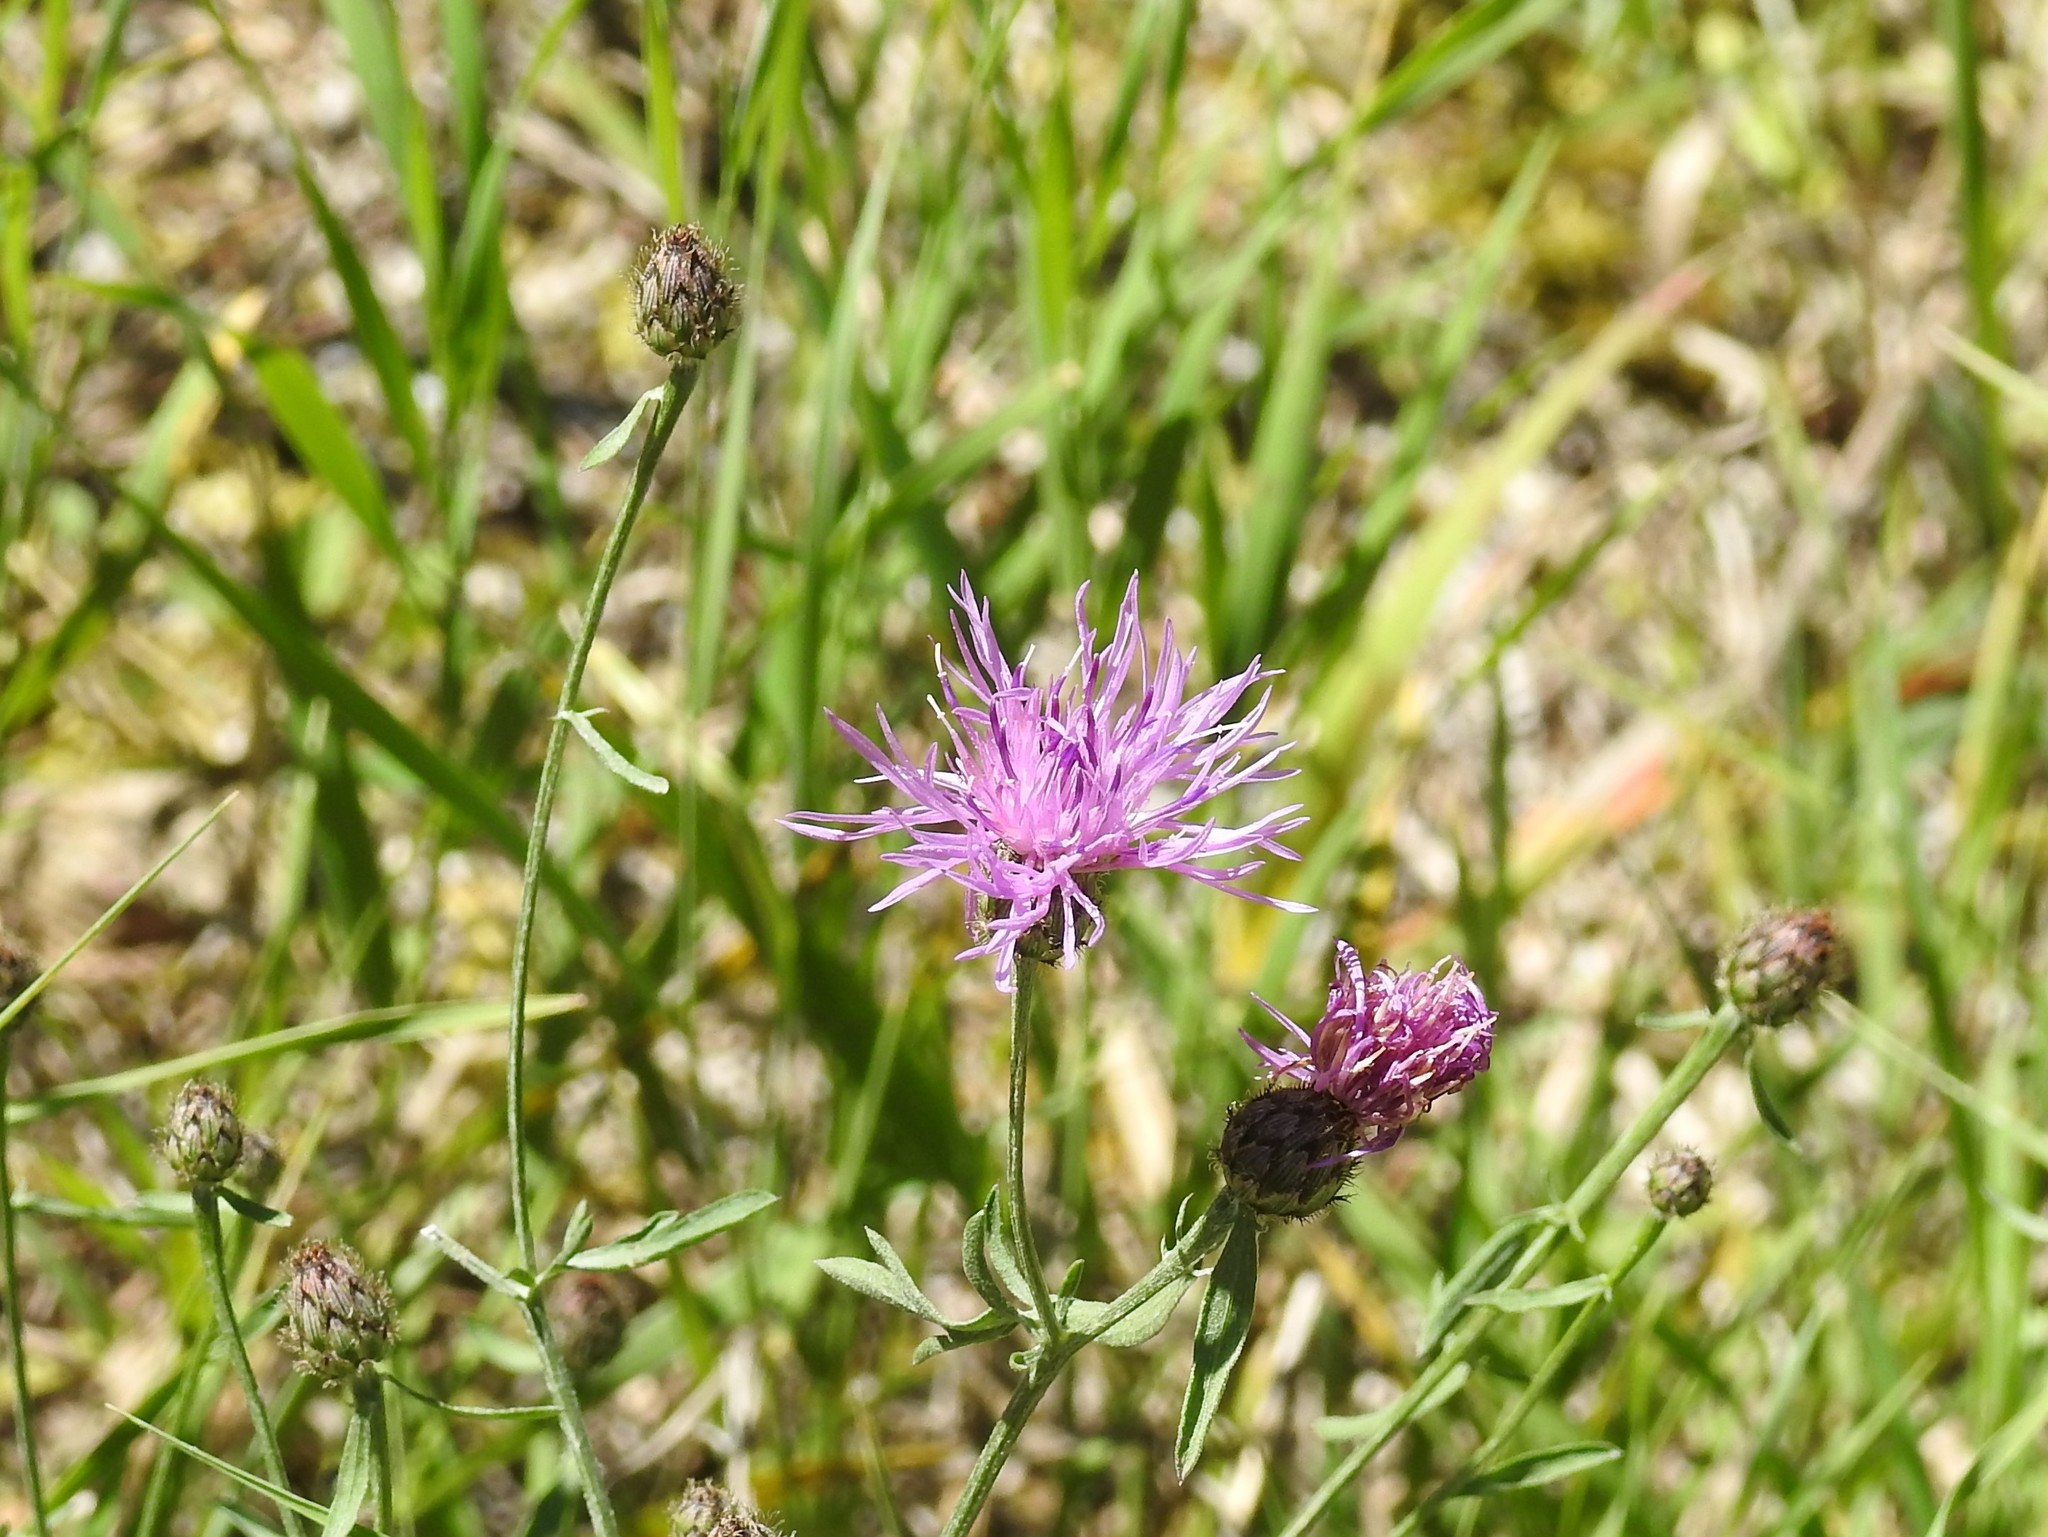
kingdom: Plantae
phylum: Tracheophyta
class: Magnoliopsida
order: Asterales
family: Asteraceae
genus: Centaurea
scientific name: Centaurea stoebe
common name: Spotted knapweed
